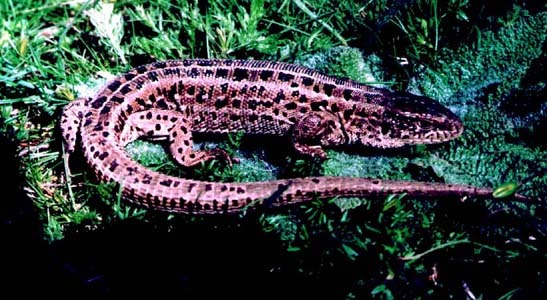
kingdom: Animalia
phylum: Chordata
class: Squamata
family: Lacertidae
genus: Lacerta
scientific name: Lacerta agilis
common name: Sand lizard
